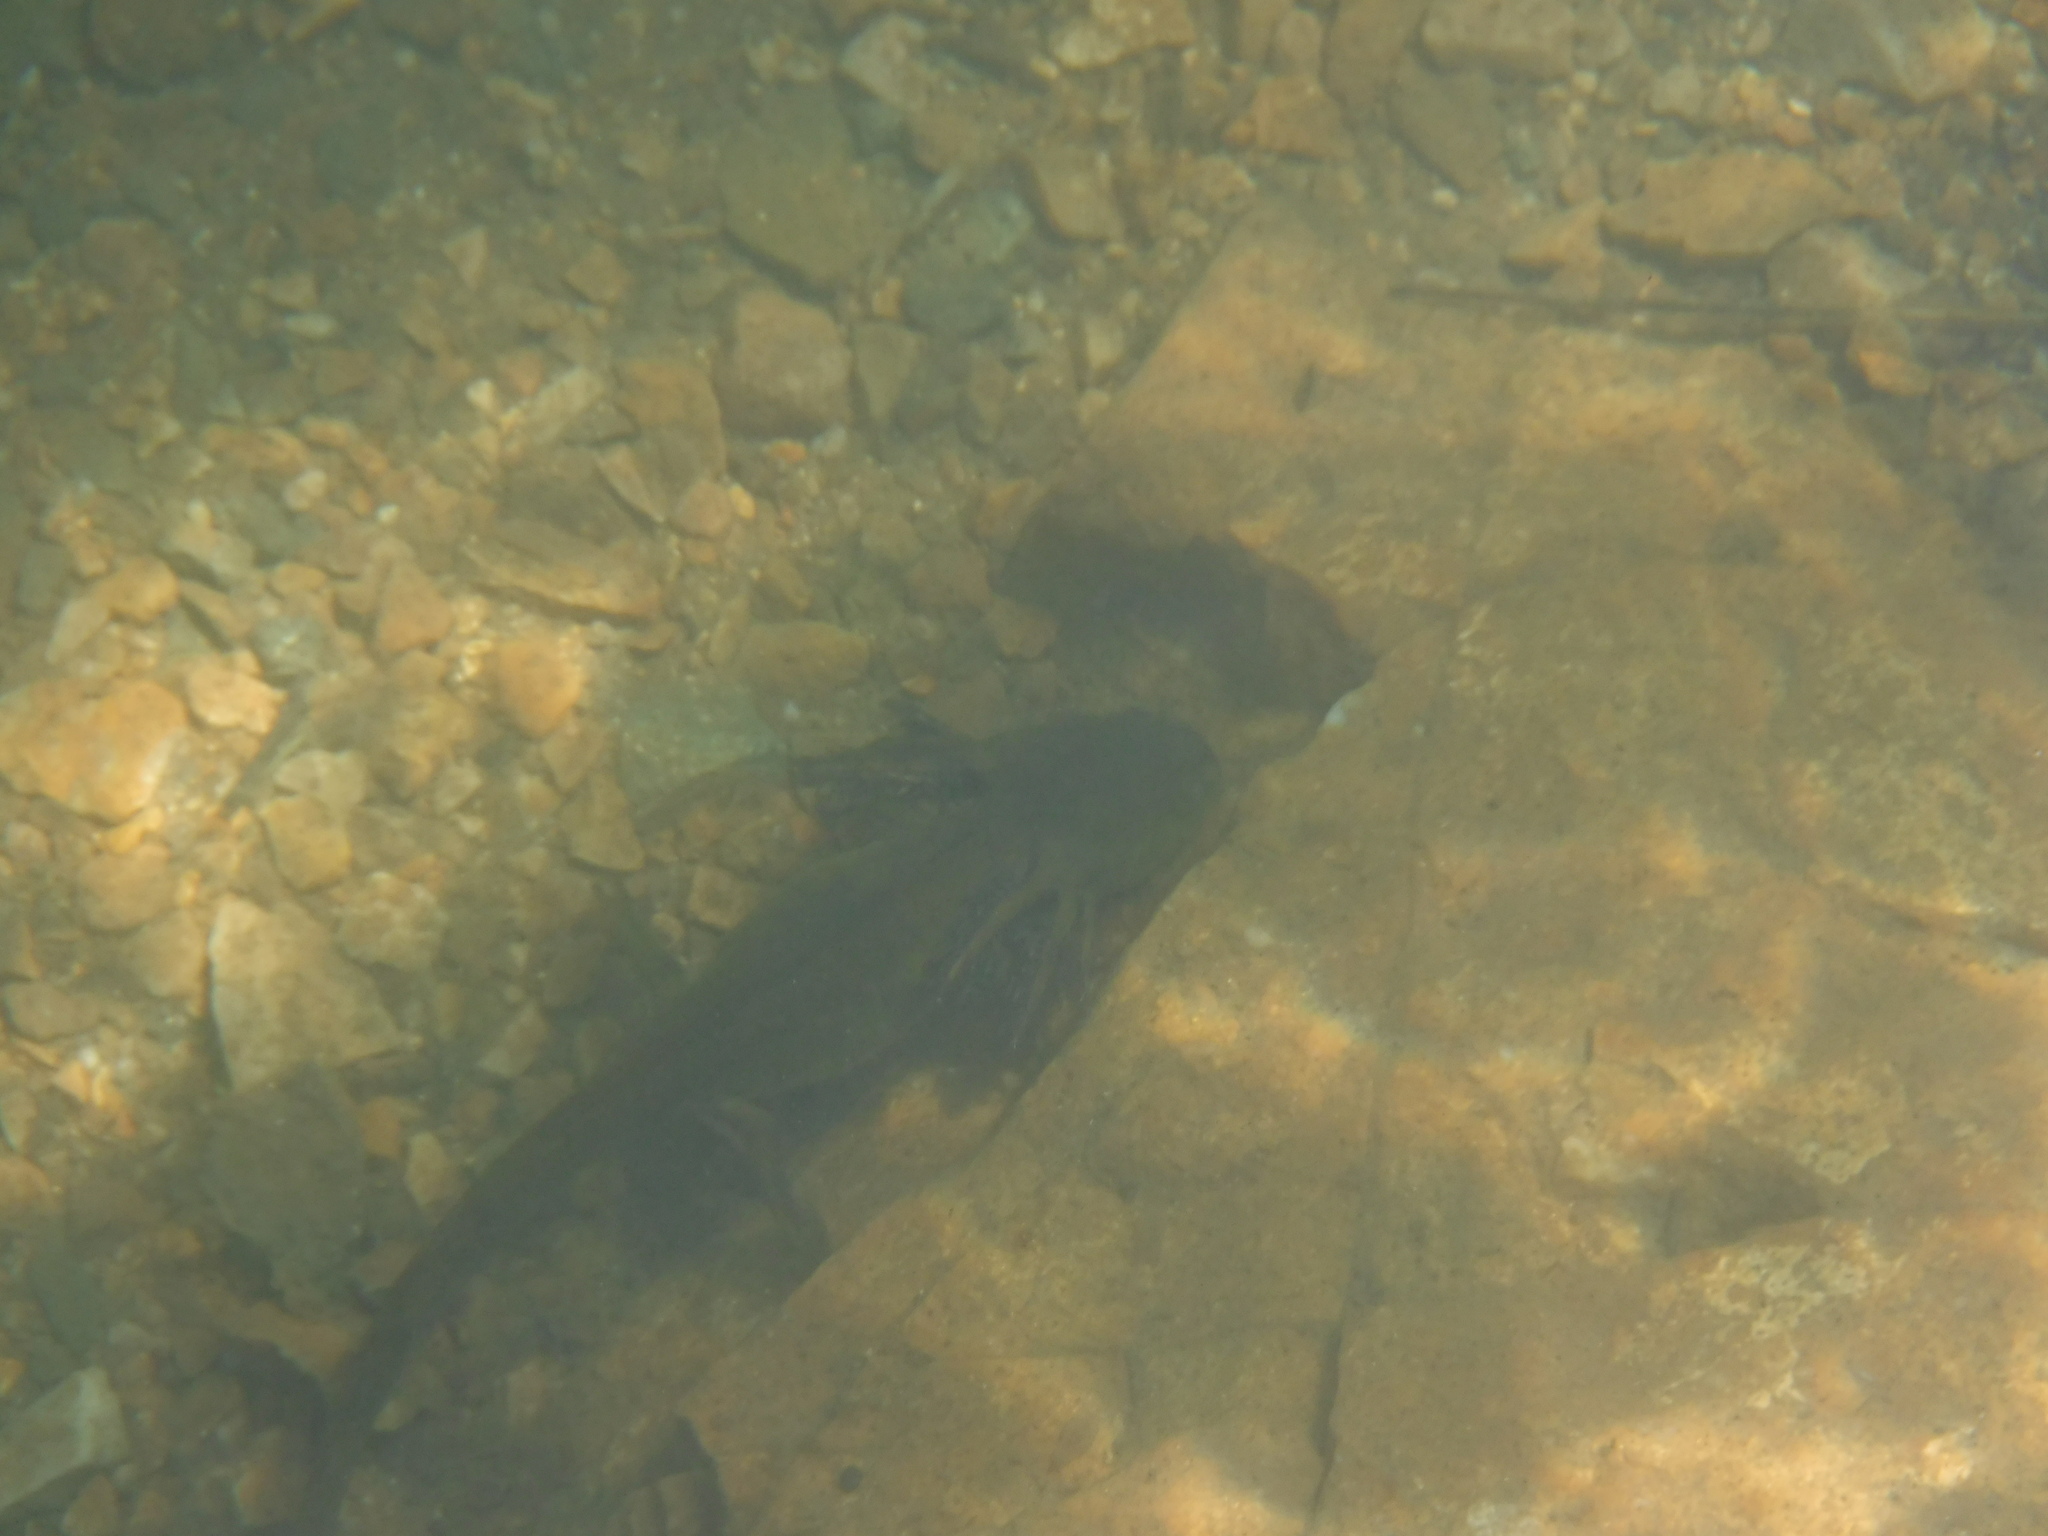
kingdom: Animalia
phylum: Chordata
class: Amphibia
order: Caudata
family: Ambystomatidae
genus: Ambystoma
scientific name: Ambystoma mavortium
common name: Western tiger salamander
